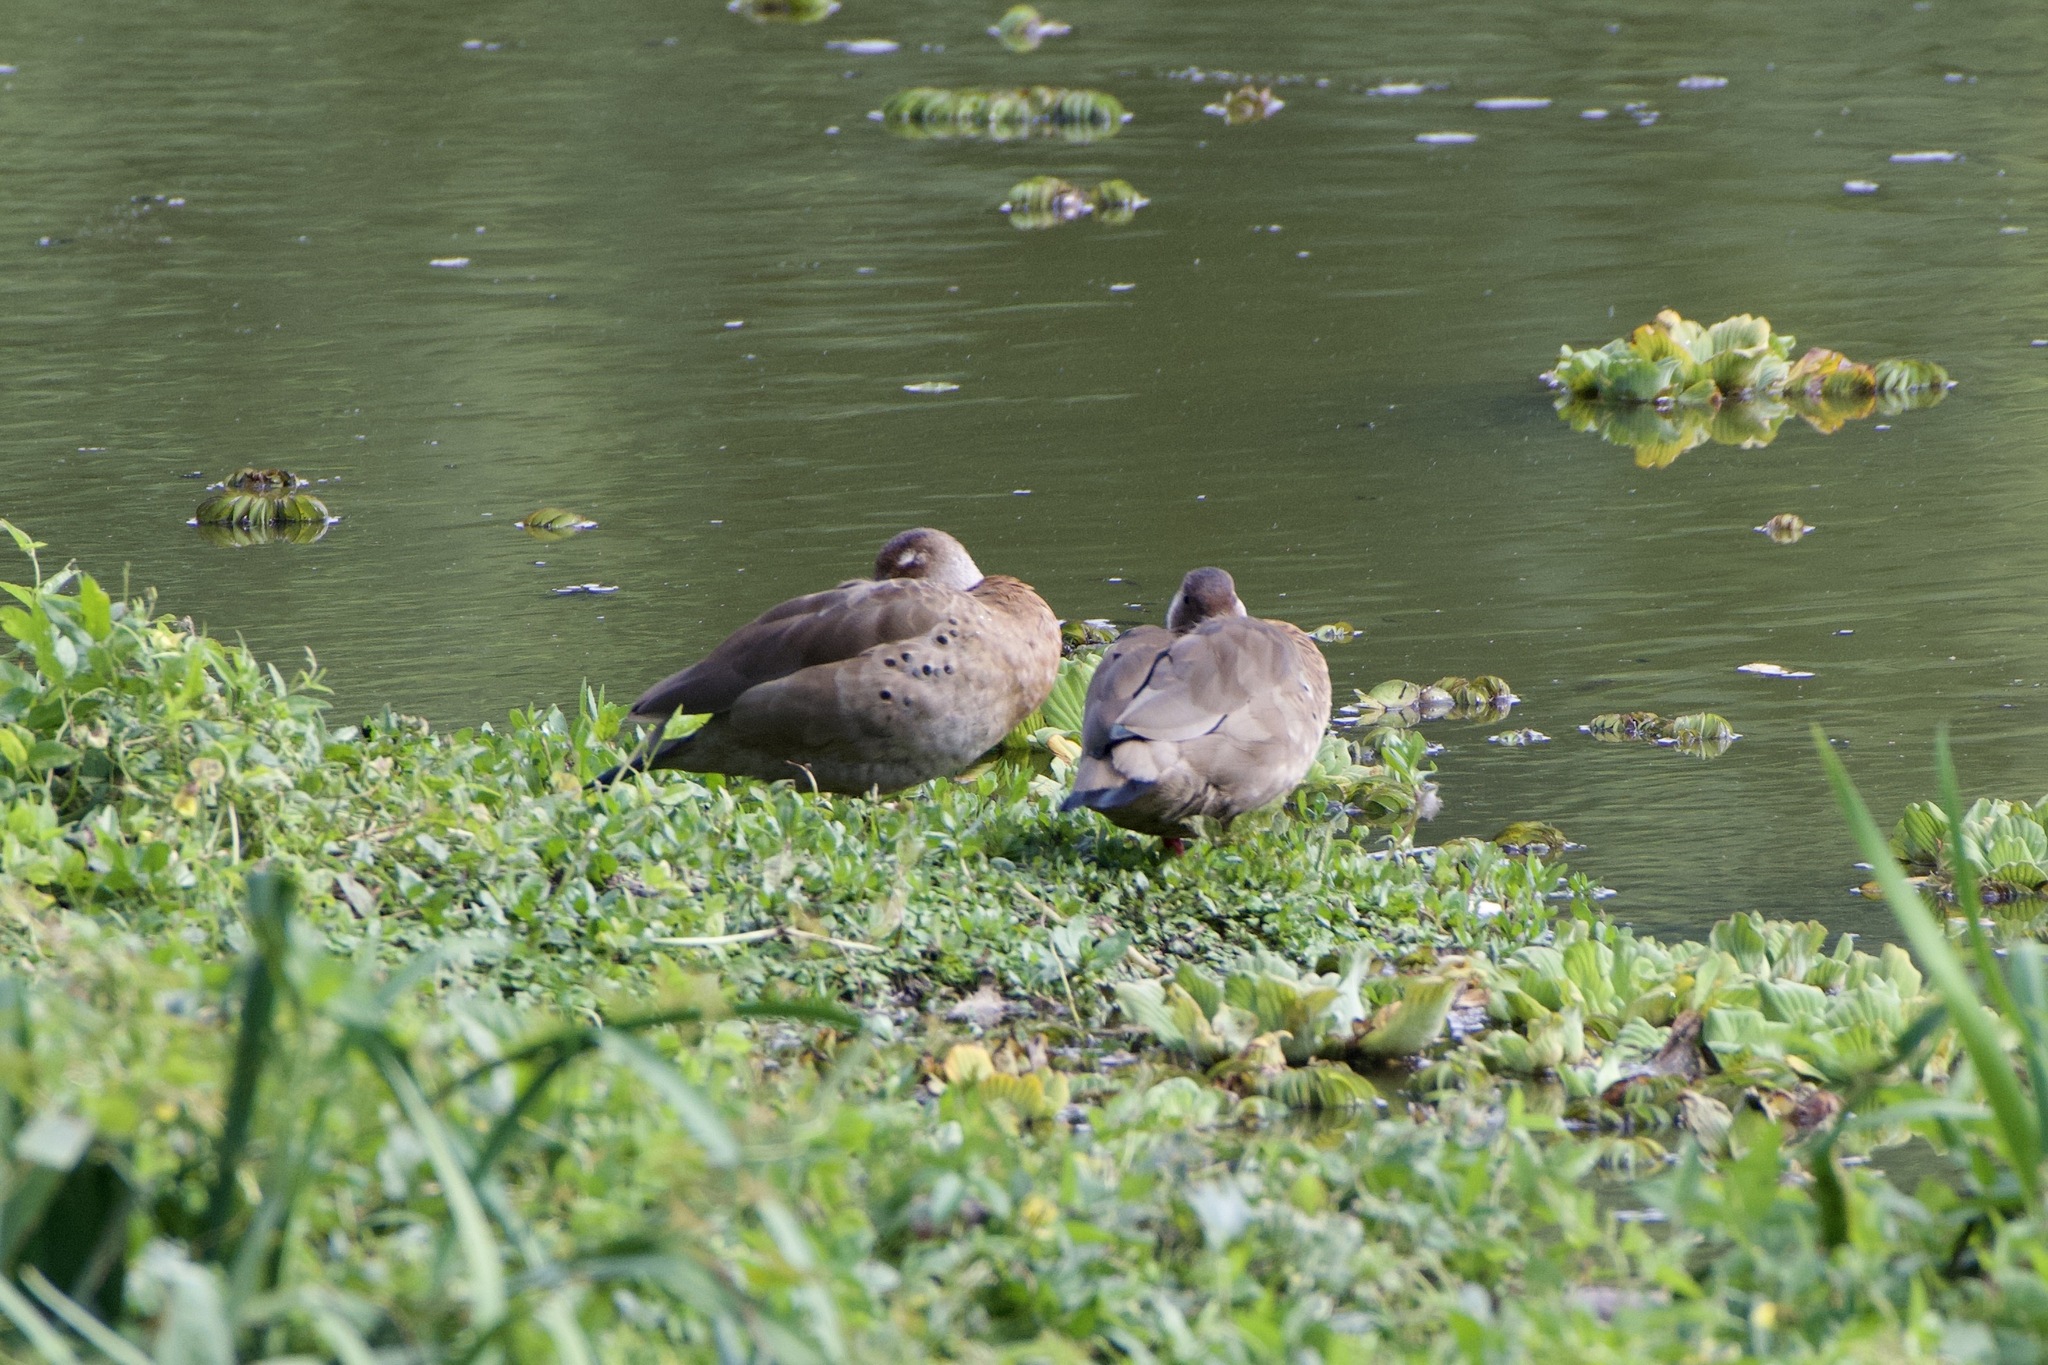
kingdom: Animalia
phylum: Chordata
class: Aves
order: Anseriformes
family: Anatidae
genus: Amazonetta
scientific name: Amazonetta brasiliensis
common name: Brazilian teal
